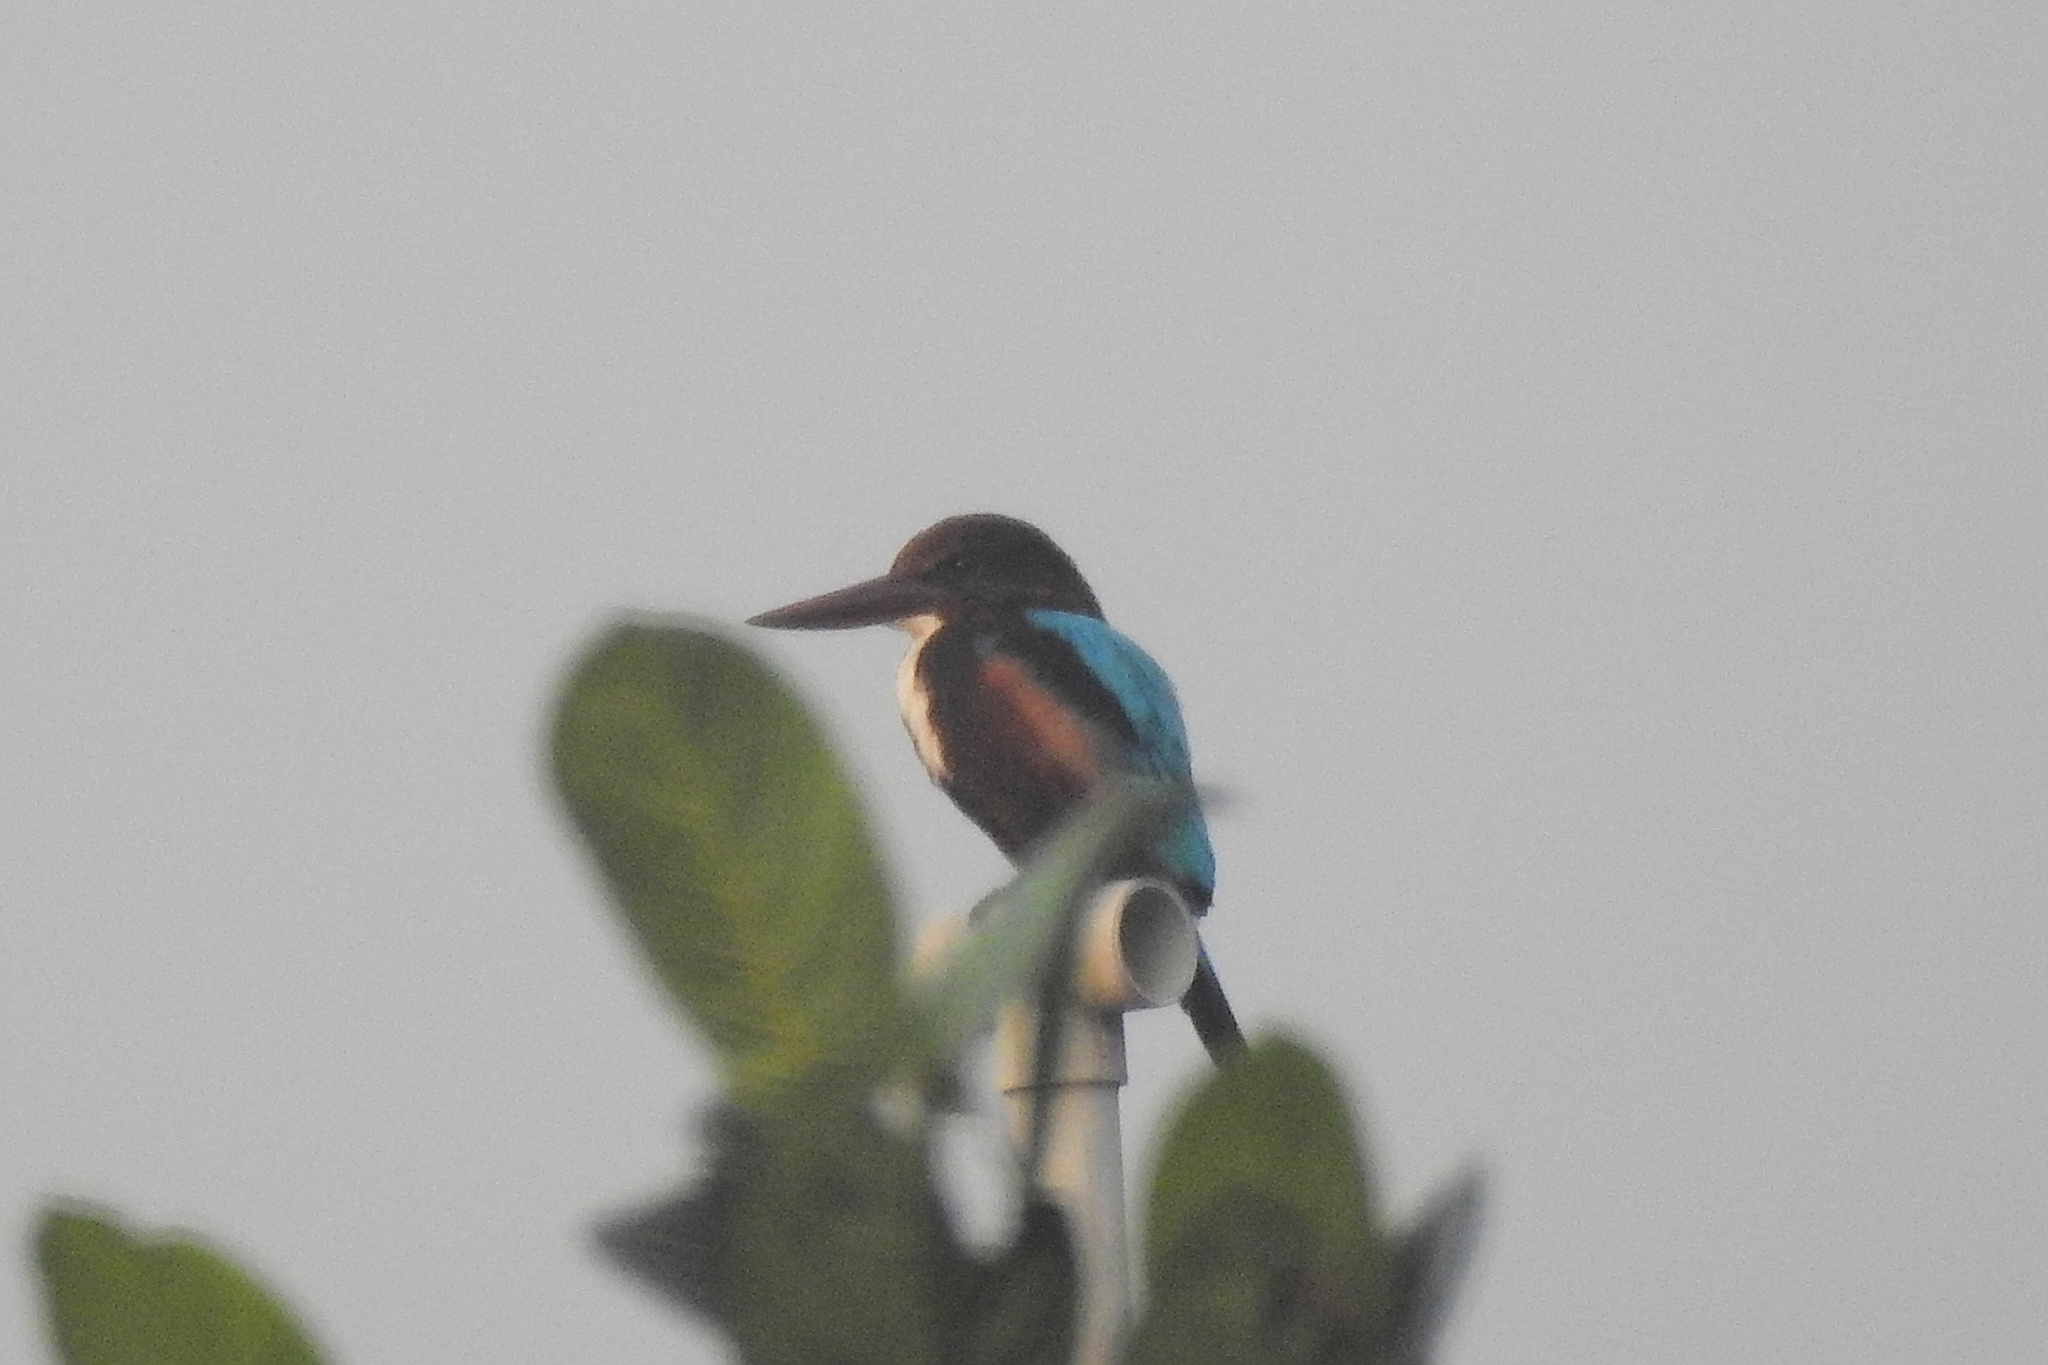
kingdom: Animalia
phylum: Chordata
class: Aves
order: Coraciiformes
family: Alcedinidae
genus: Halcyon
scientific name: Halcyon smyrnensis
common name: White-throated kingfisher
